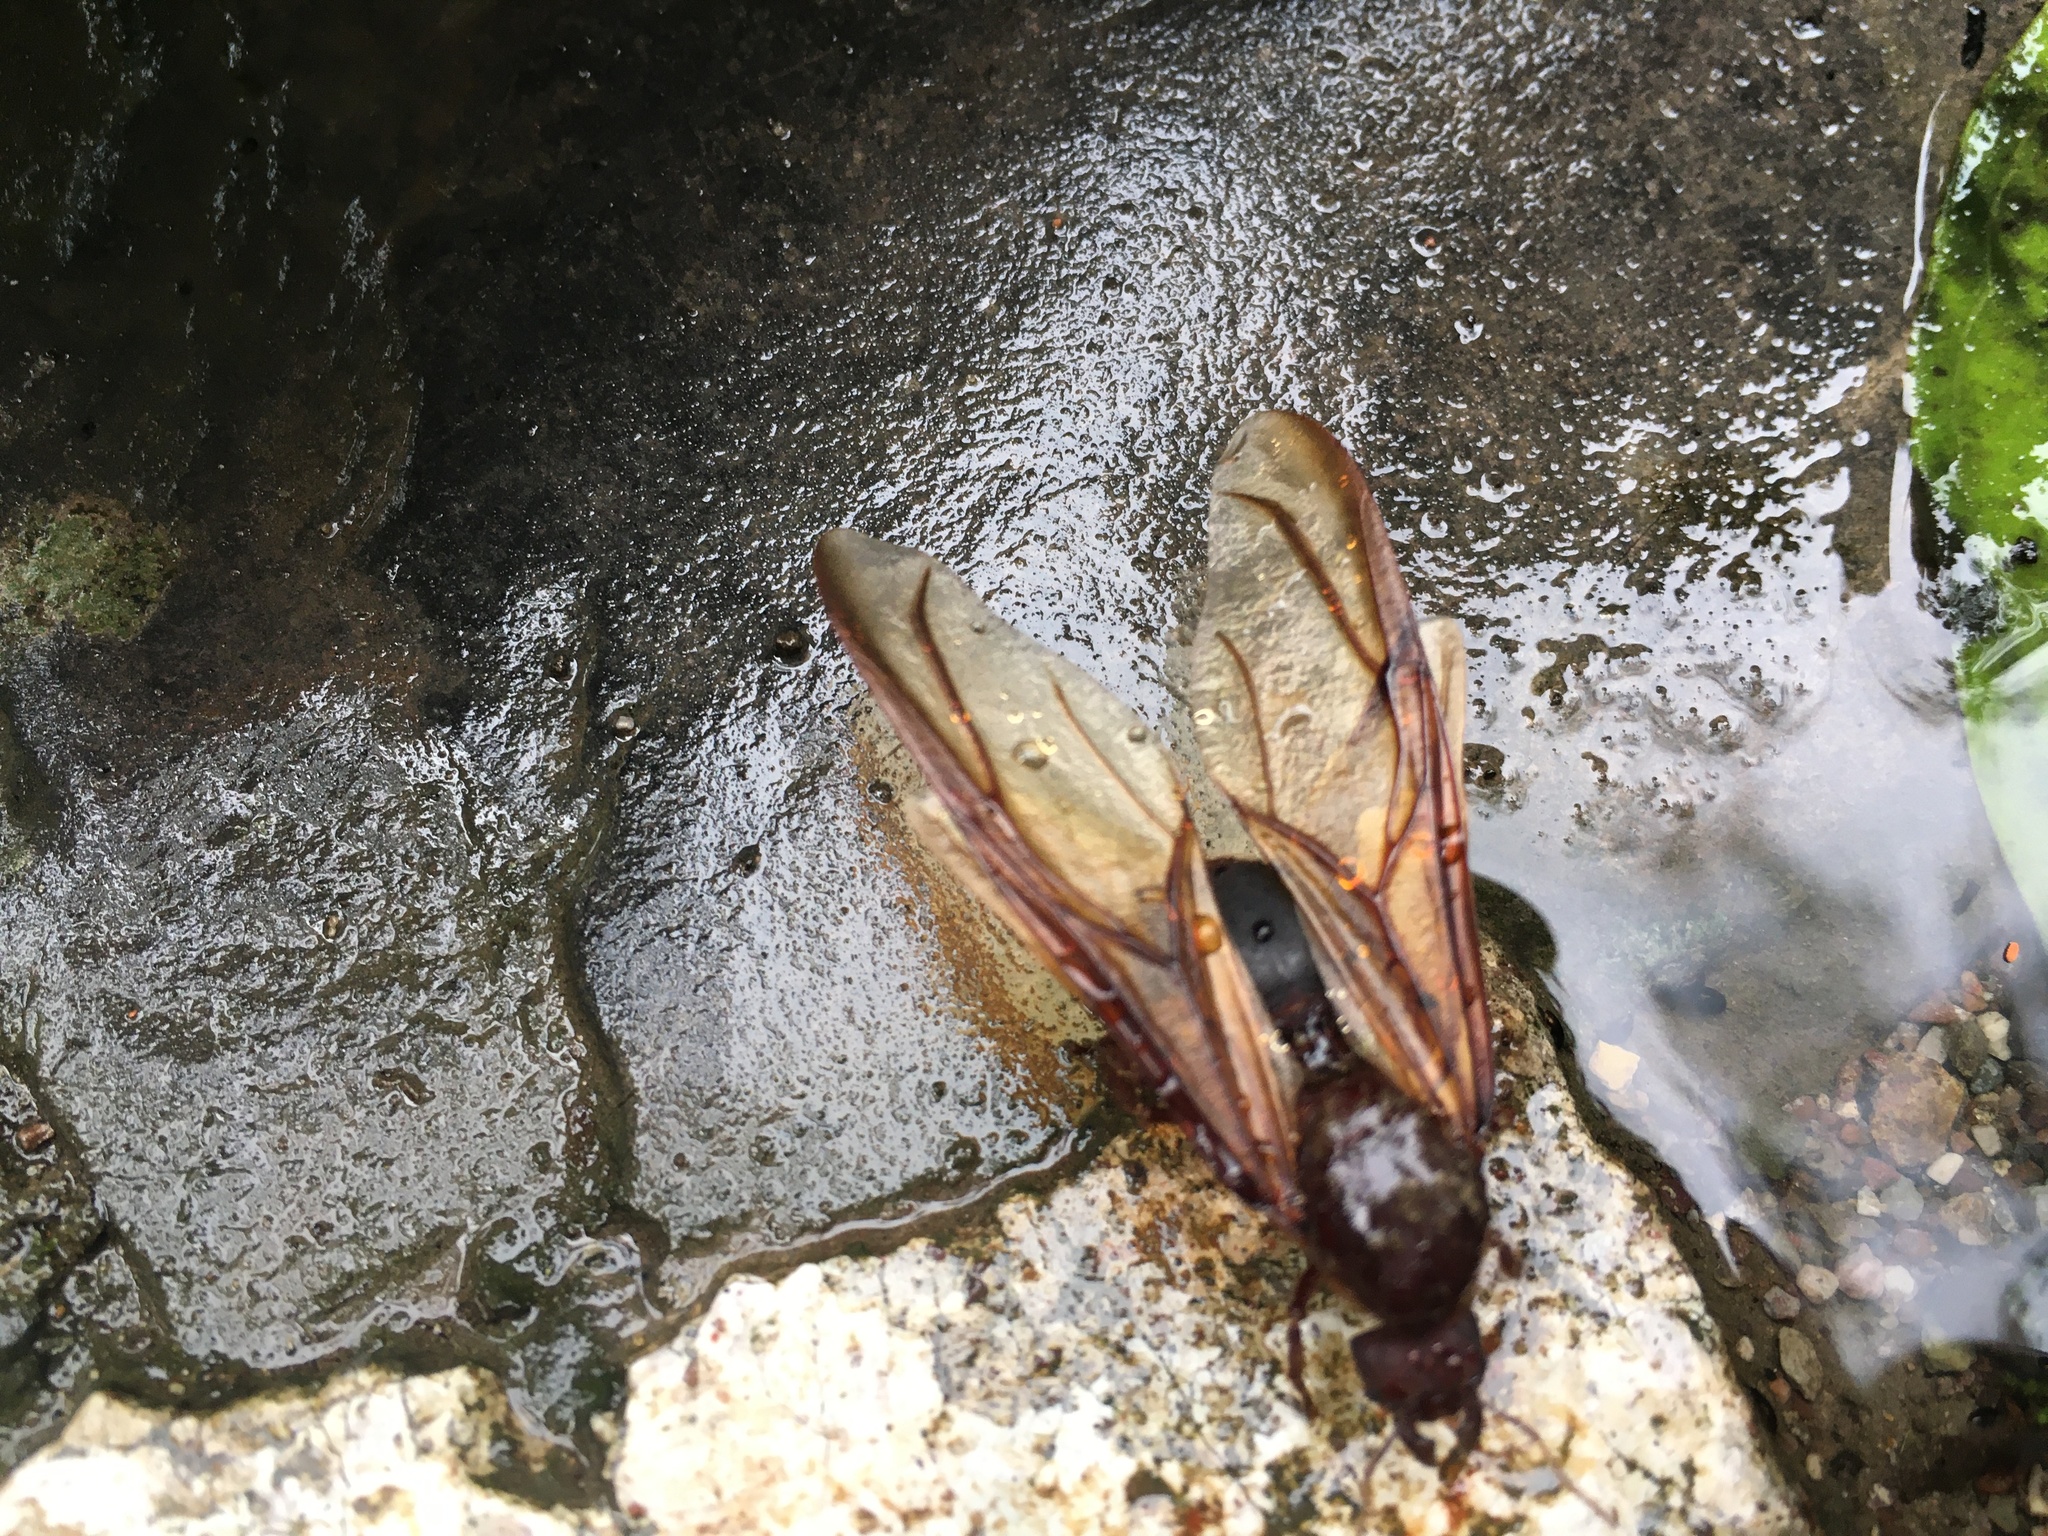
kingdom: Animalia
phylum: Arthropoda
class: Insecta
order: Hymenoptera
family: Formicidae
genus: Atta
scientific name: Atta mexicana
